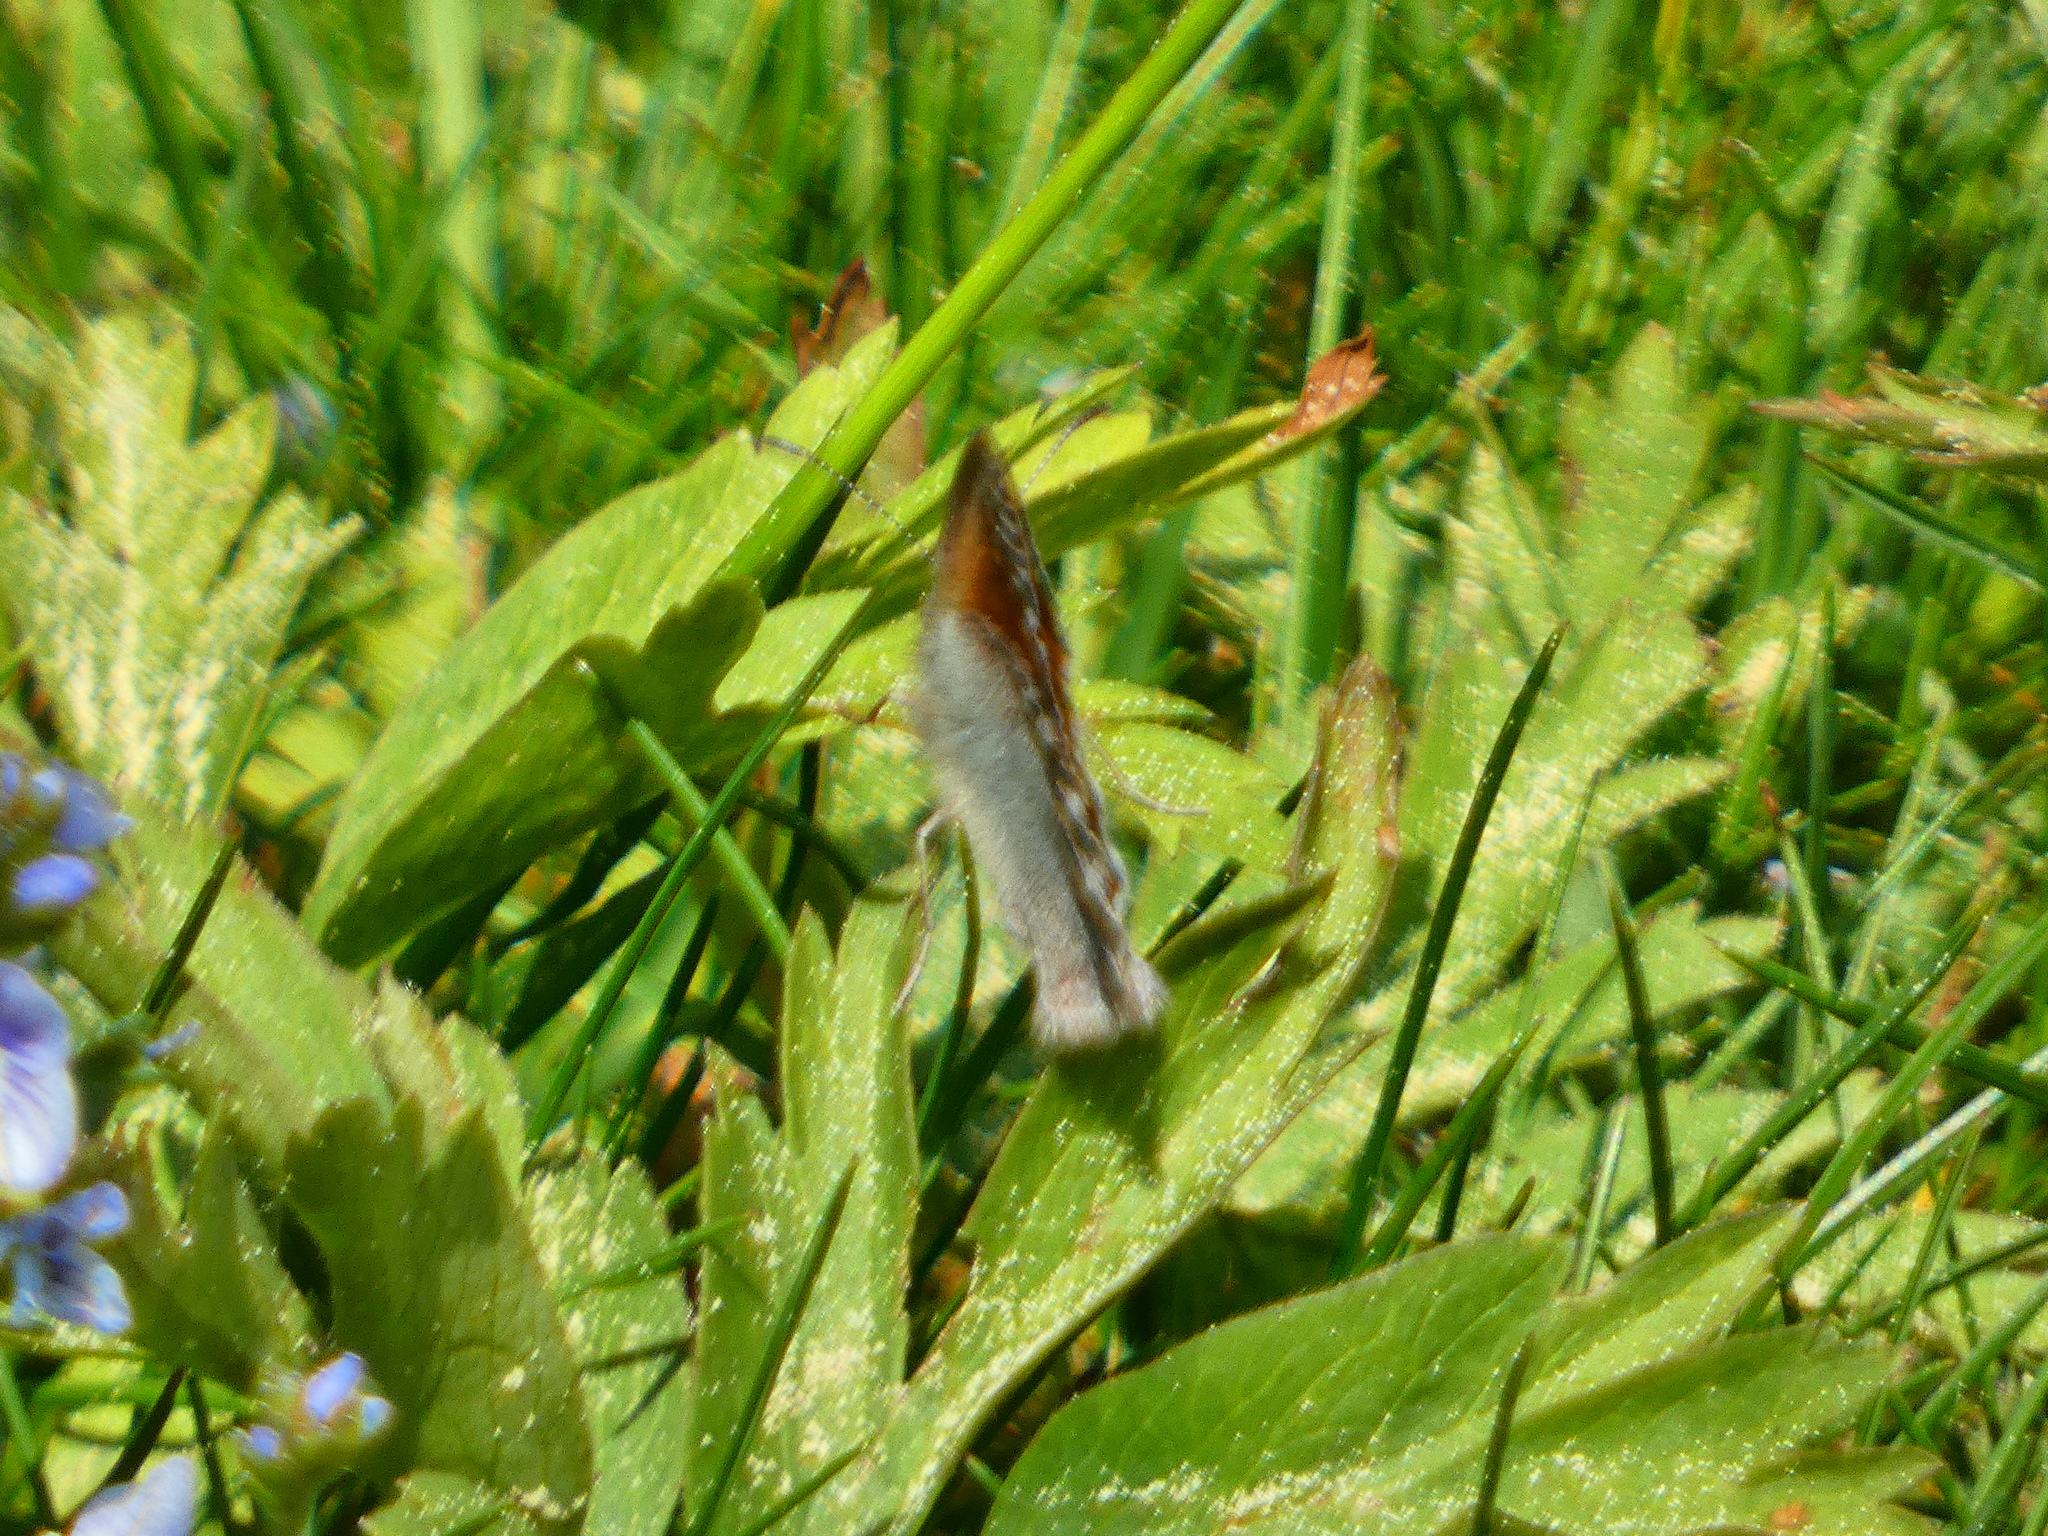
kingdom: Animalia
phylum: Arthropoda
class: Insecta
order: Lepidoptera
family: Nymphalidae
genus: Coenonympha
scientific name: Coenonympha pamphilus
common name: Small heath
